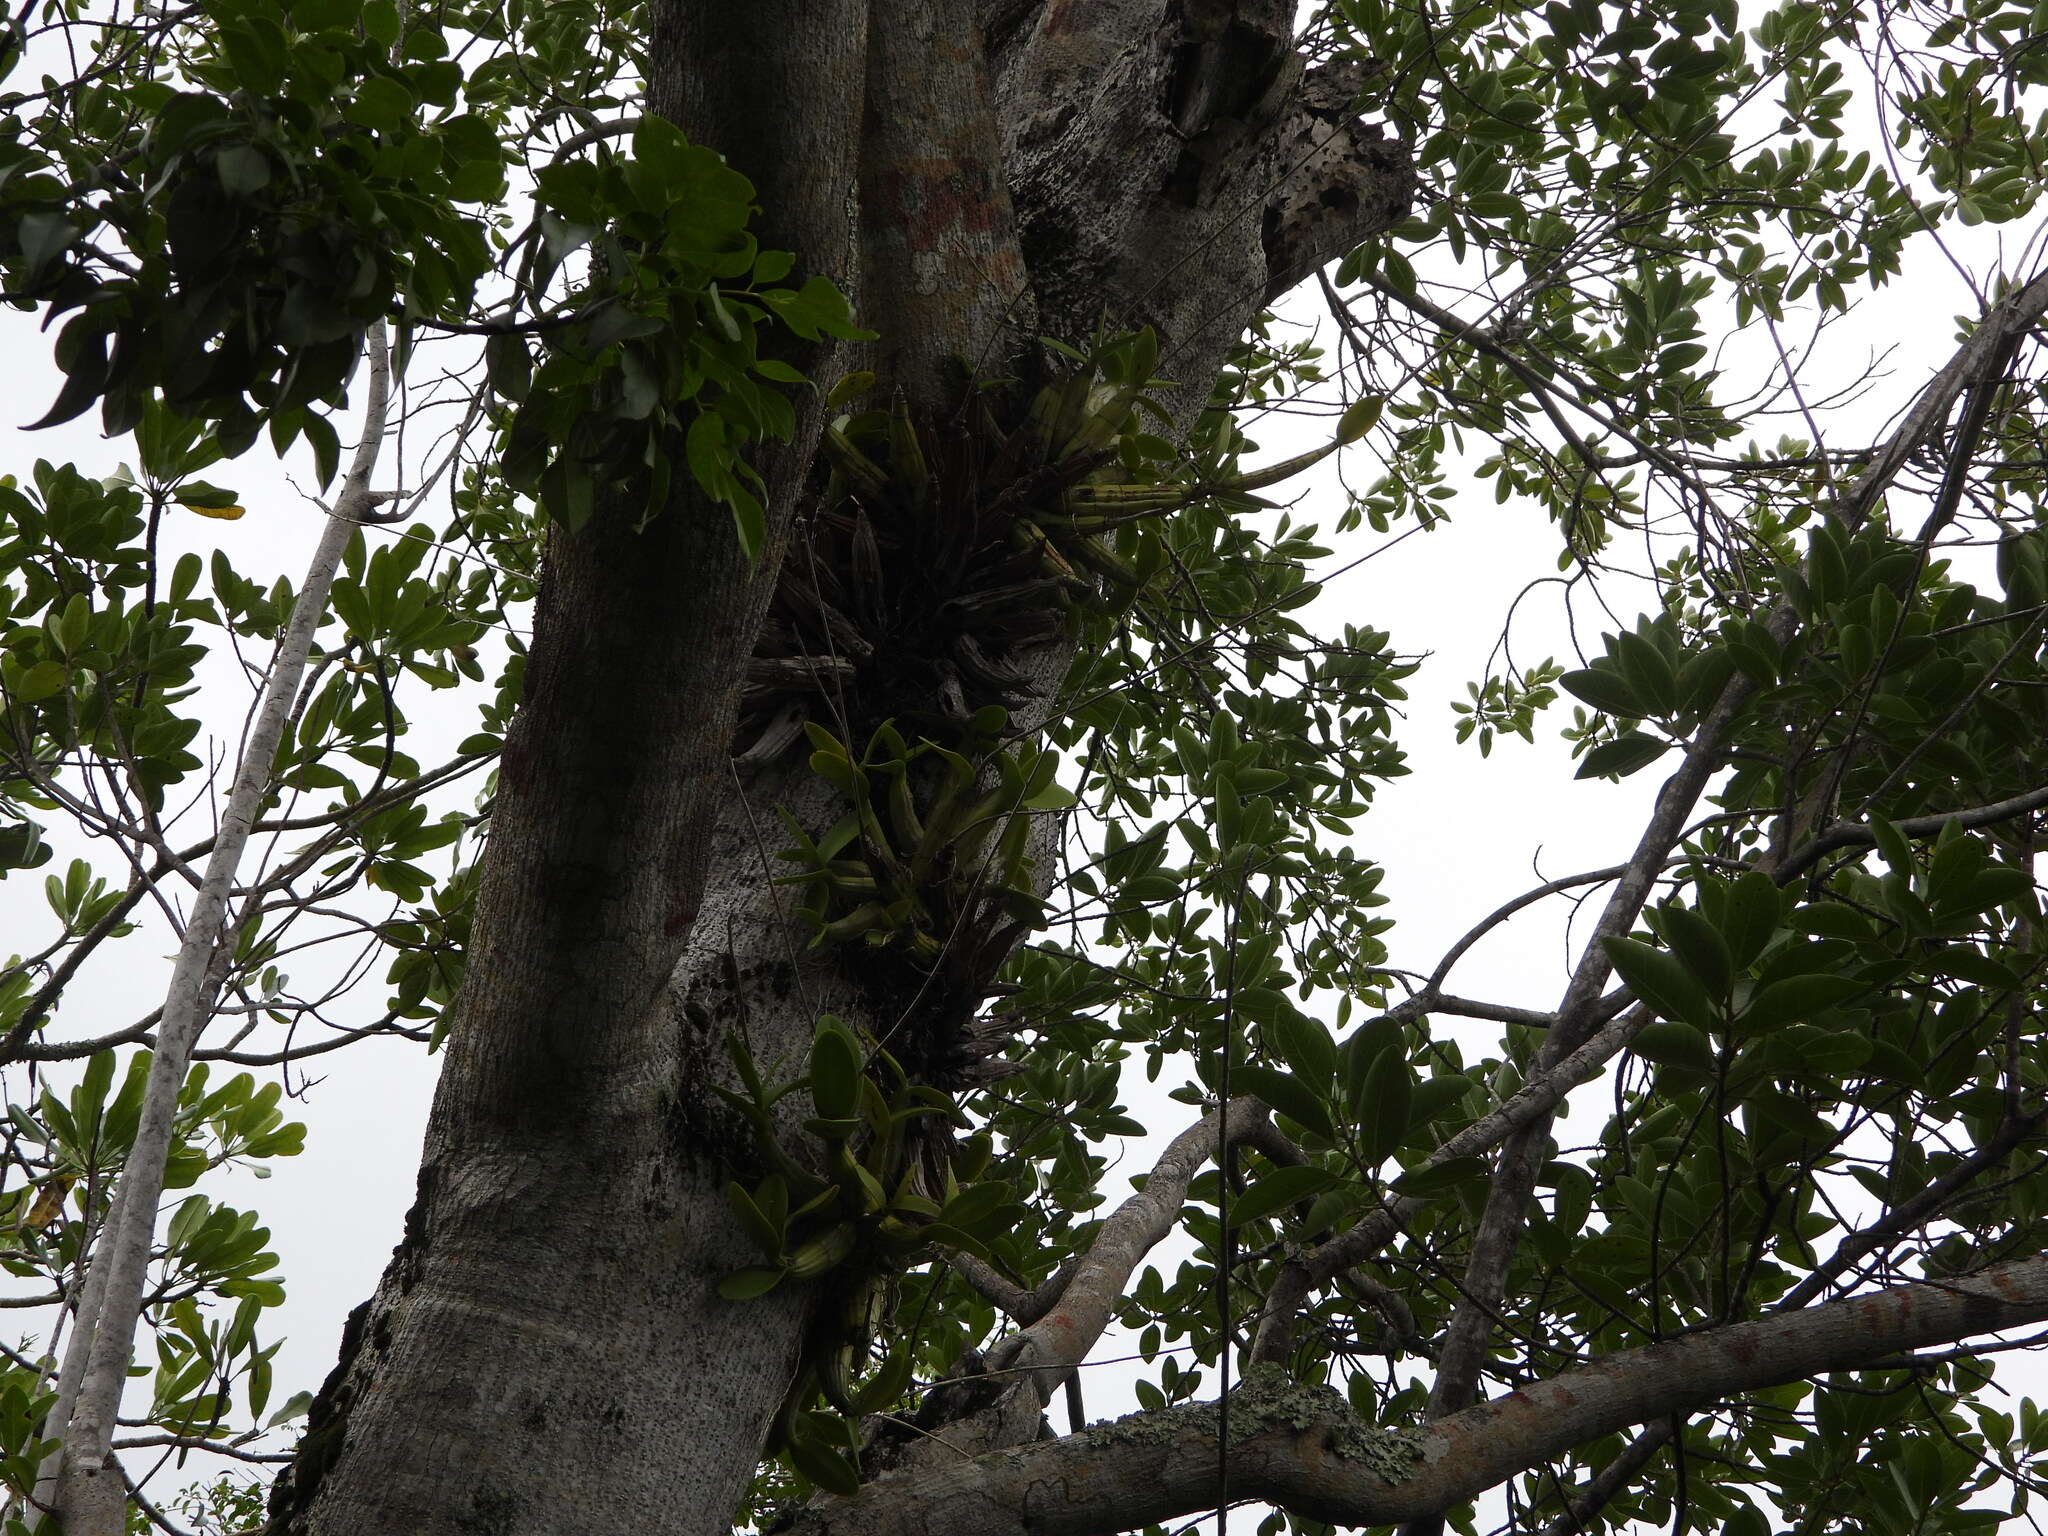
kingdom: Plantae
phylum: Tracheophyta
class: Liliopsida
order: Asparagales
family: Orchidaceae
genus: Myrmecophila
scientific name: Myrmecophila thomsoniana
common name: Banana orchid
